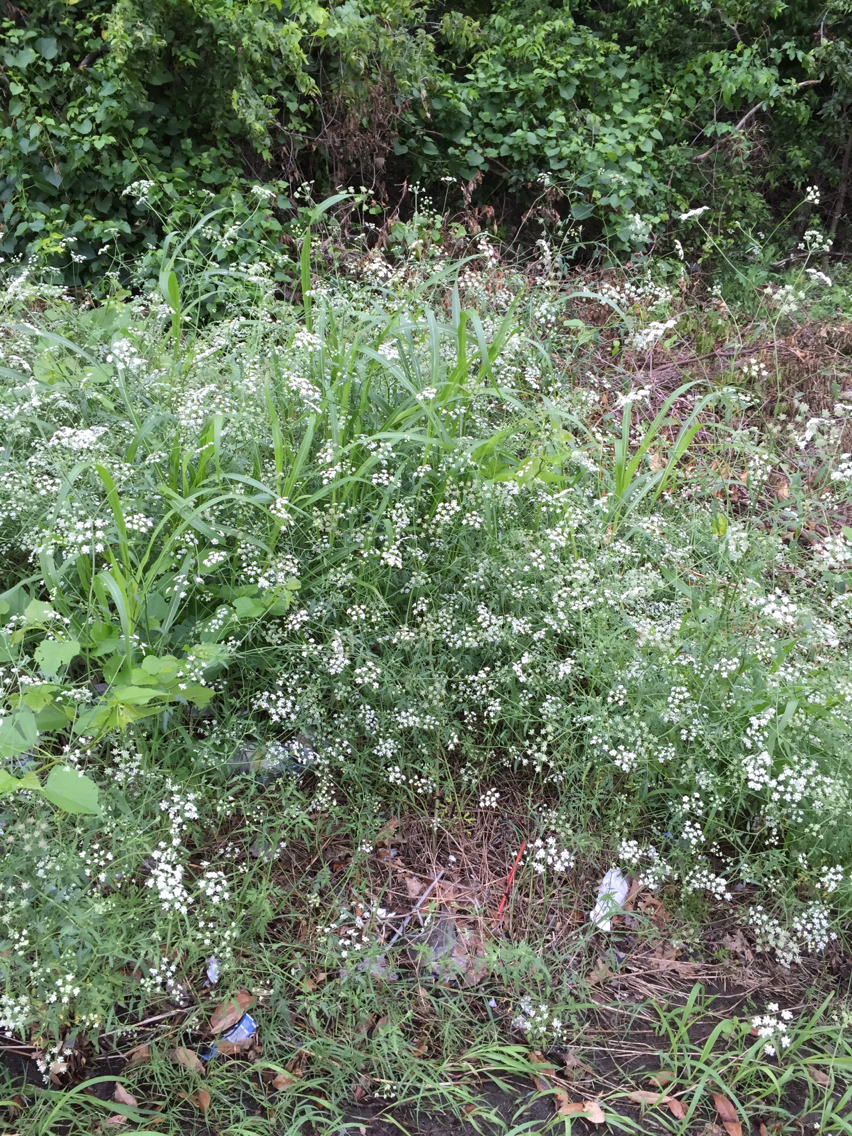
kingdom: Plantae
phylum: Tracheophyta
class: Magnoliopsida
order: Apiales
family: Apiaceae
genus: Torilis
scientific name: Torilis arvensis
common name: Spreading hedge-parsley
